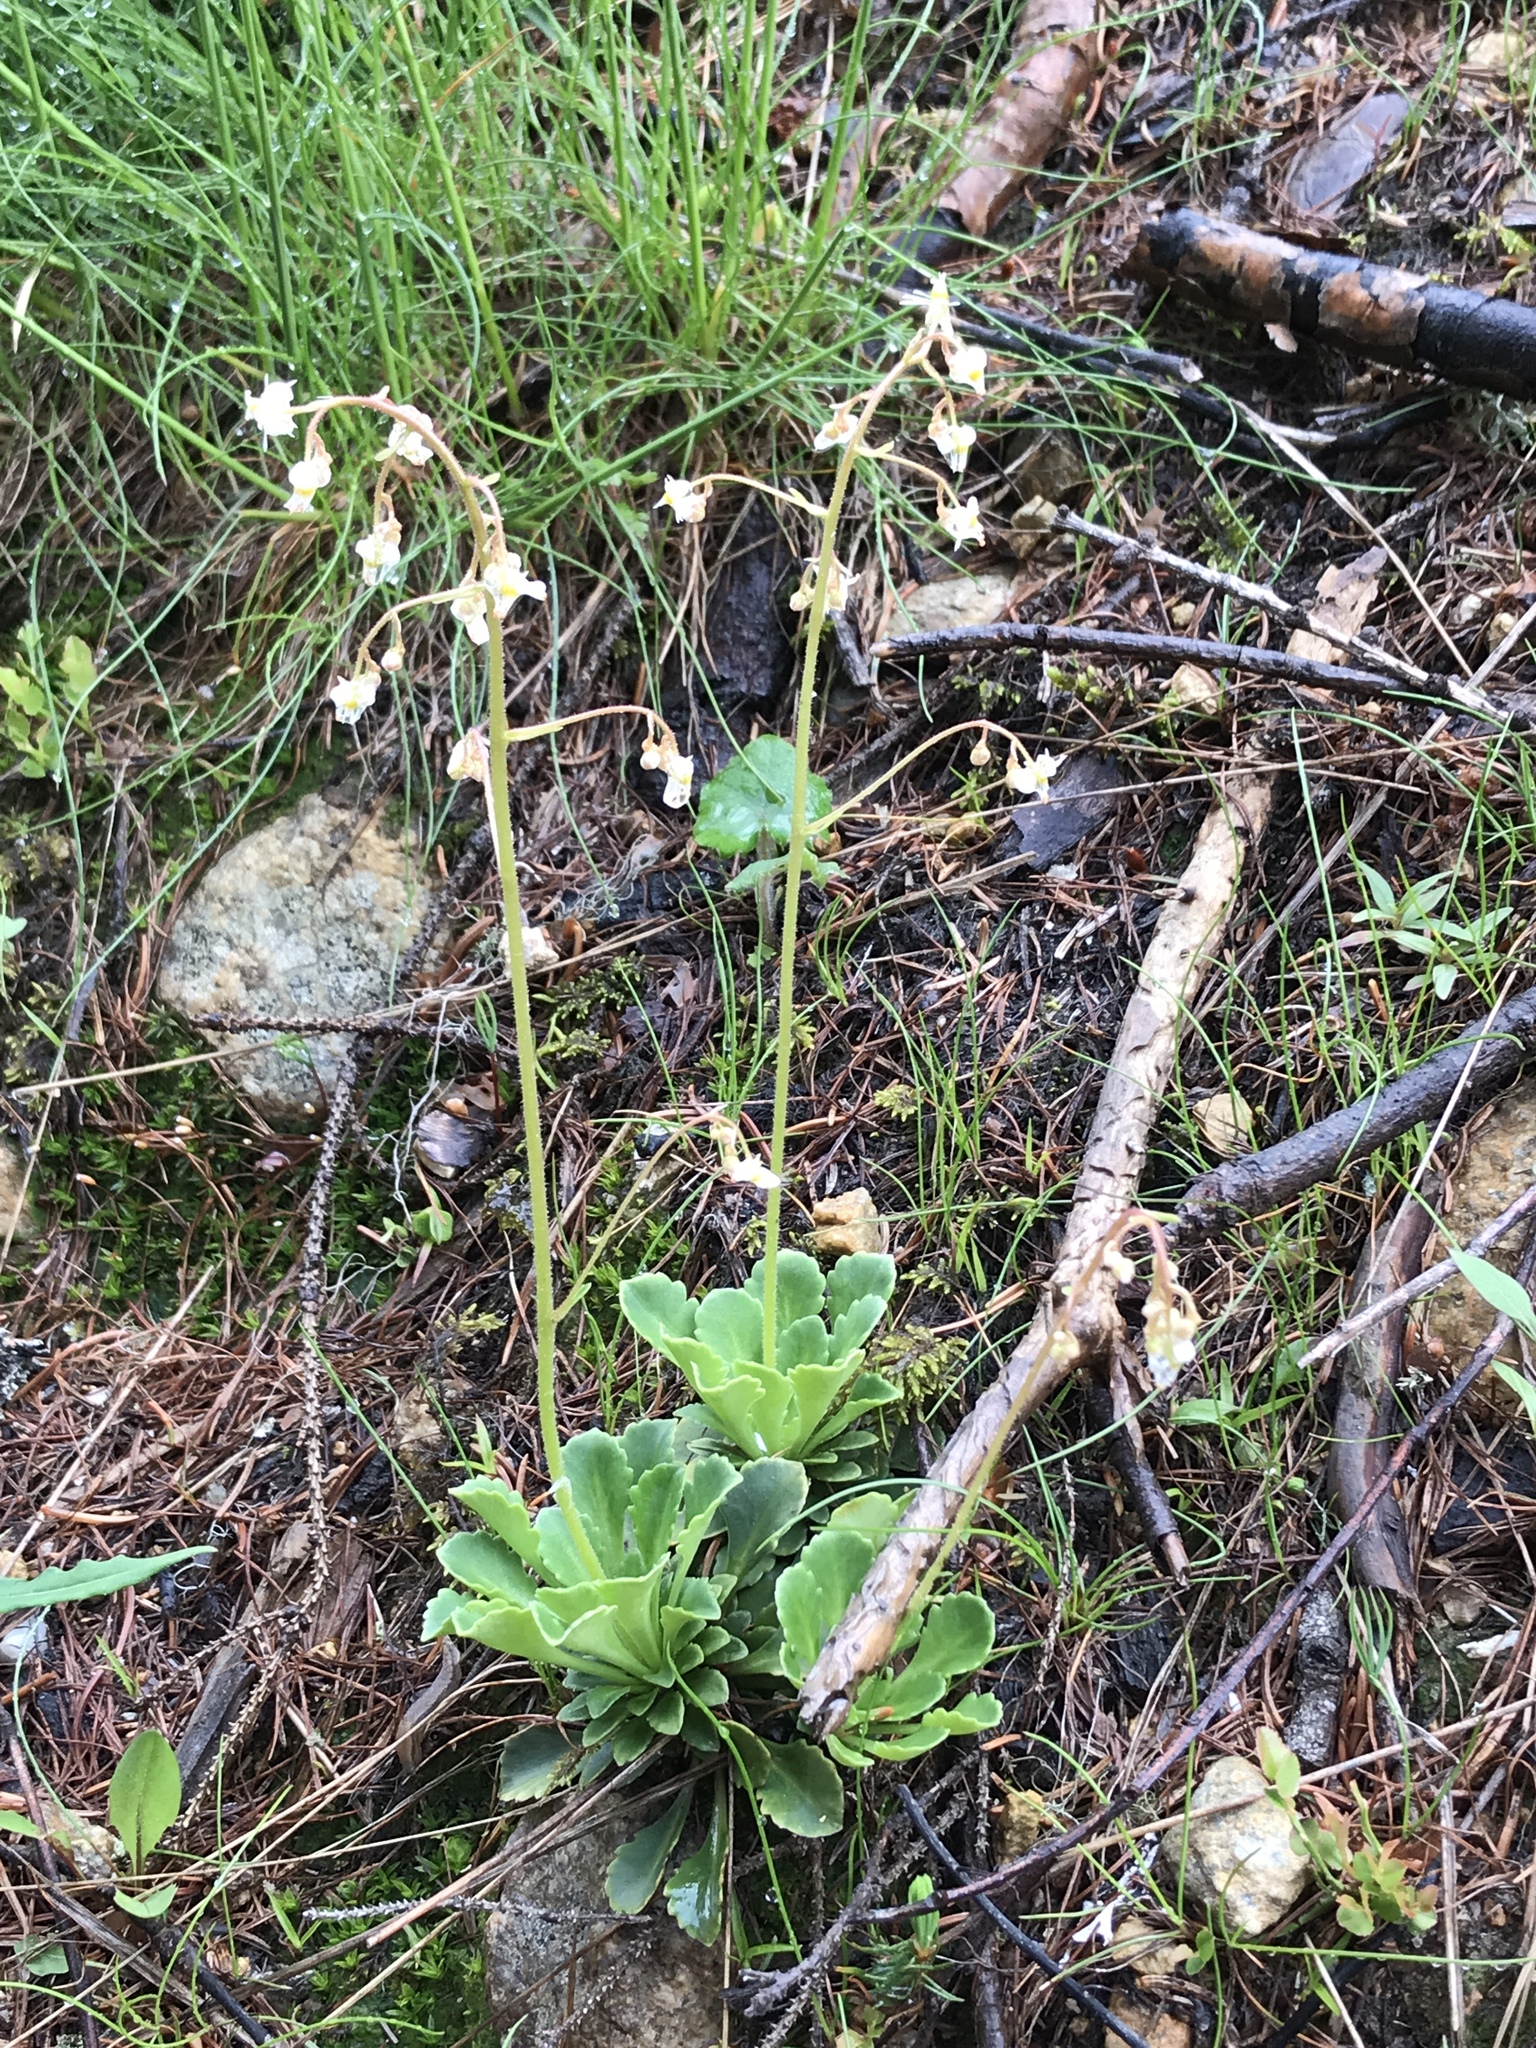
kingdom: Plantae
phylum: Tracheophyta
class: Magnoliopsida
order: Saxifragales
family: Saxifragaceae
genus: Saxifraga
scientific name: Saxifraga cuneifolia
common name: Lesser londonpride
